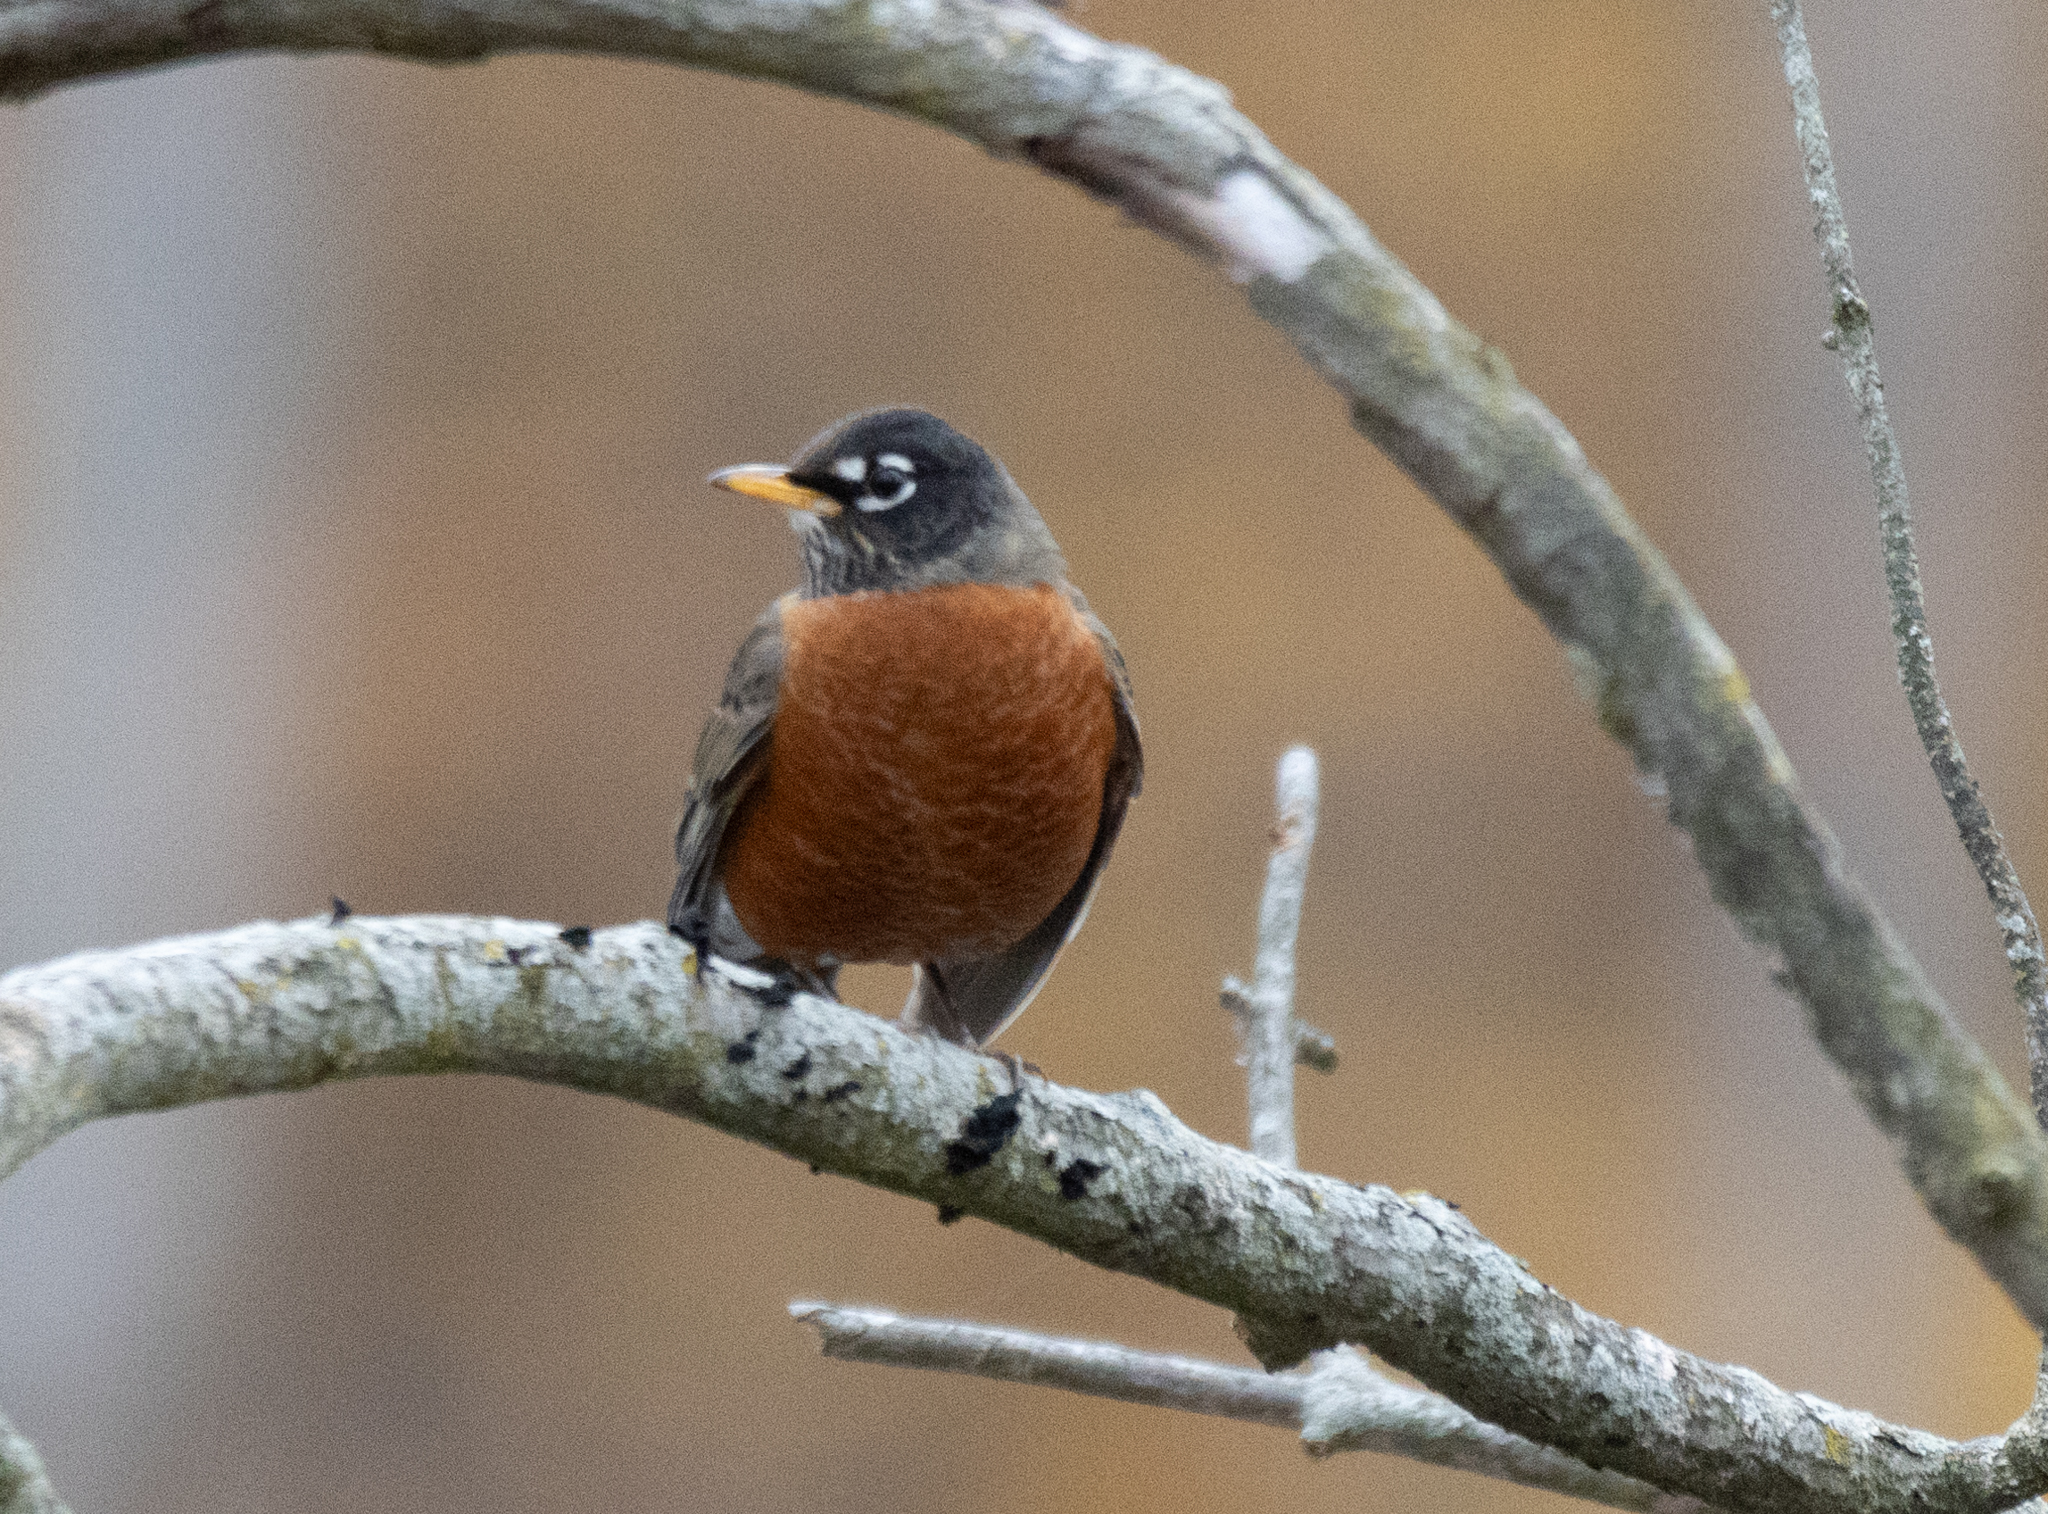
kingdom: Animalia
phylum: Chordata
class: Aves
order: Passeriformes
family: Turdidae
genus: Turdus
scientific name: Turdus migratorius
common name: American robin
